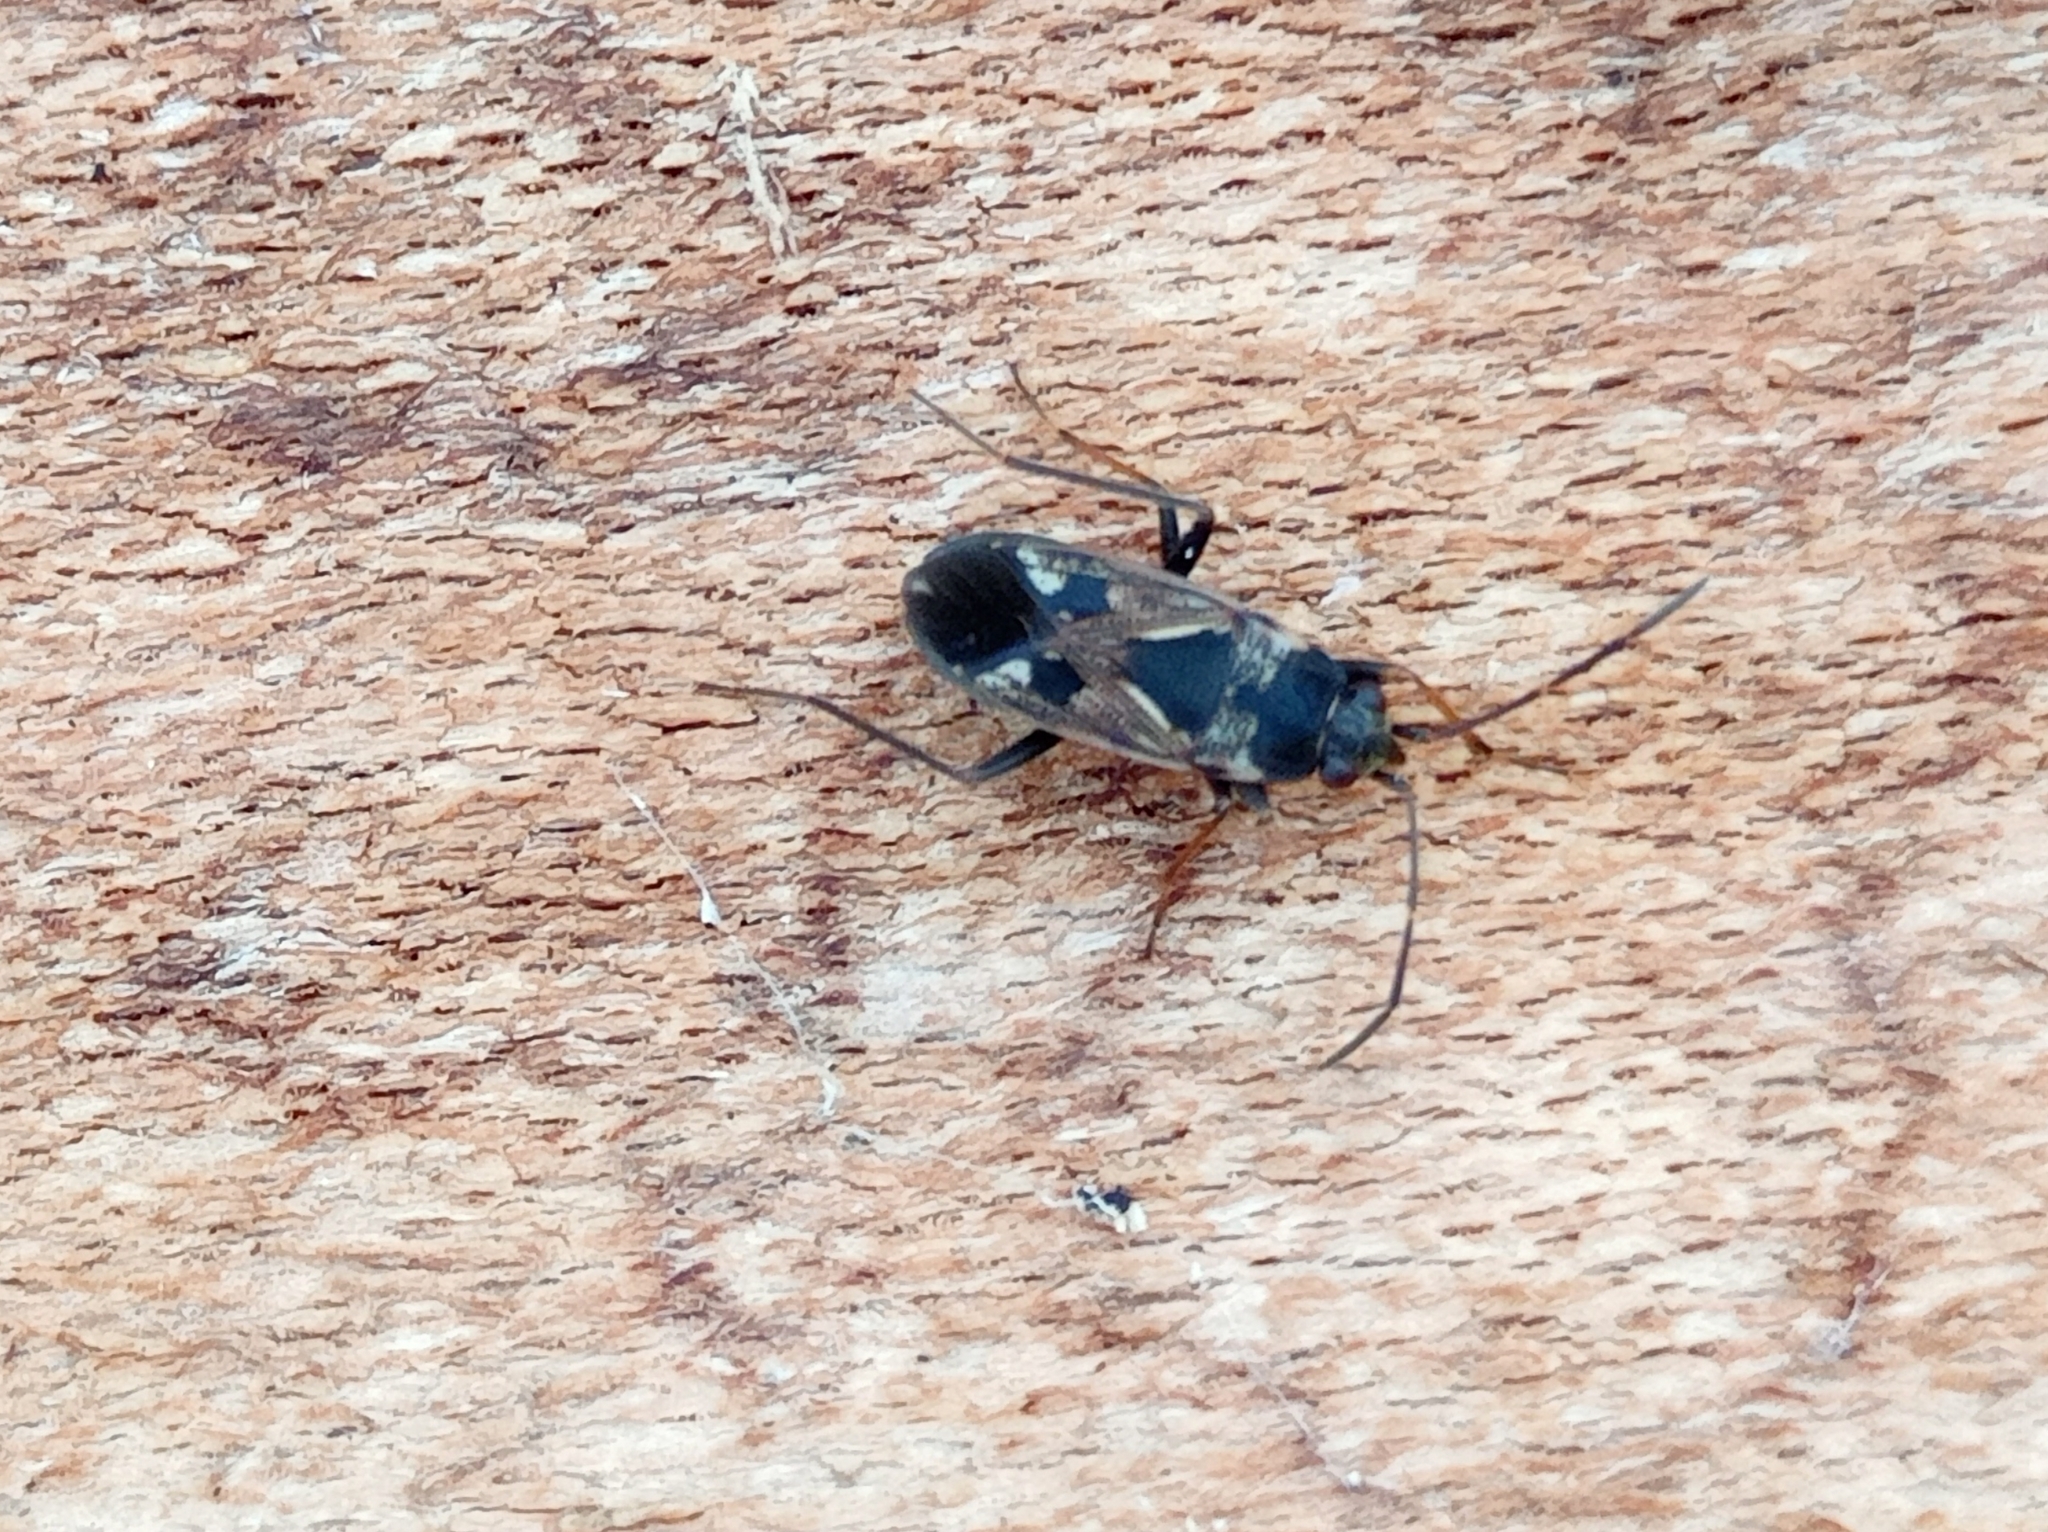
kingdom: Animalia
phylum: Arthropoda
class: Insecta
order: Hemiptera
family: Rhyparochromidae
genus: Rhyparochromus
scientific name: Rhyparochromus vulgaris
